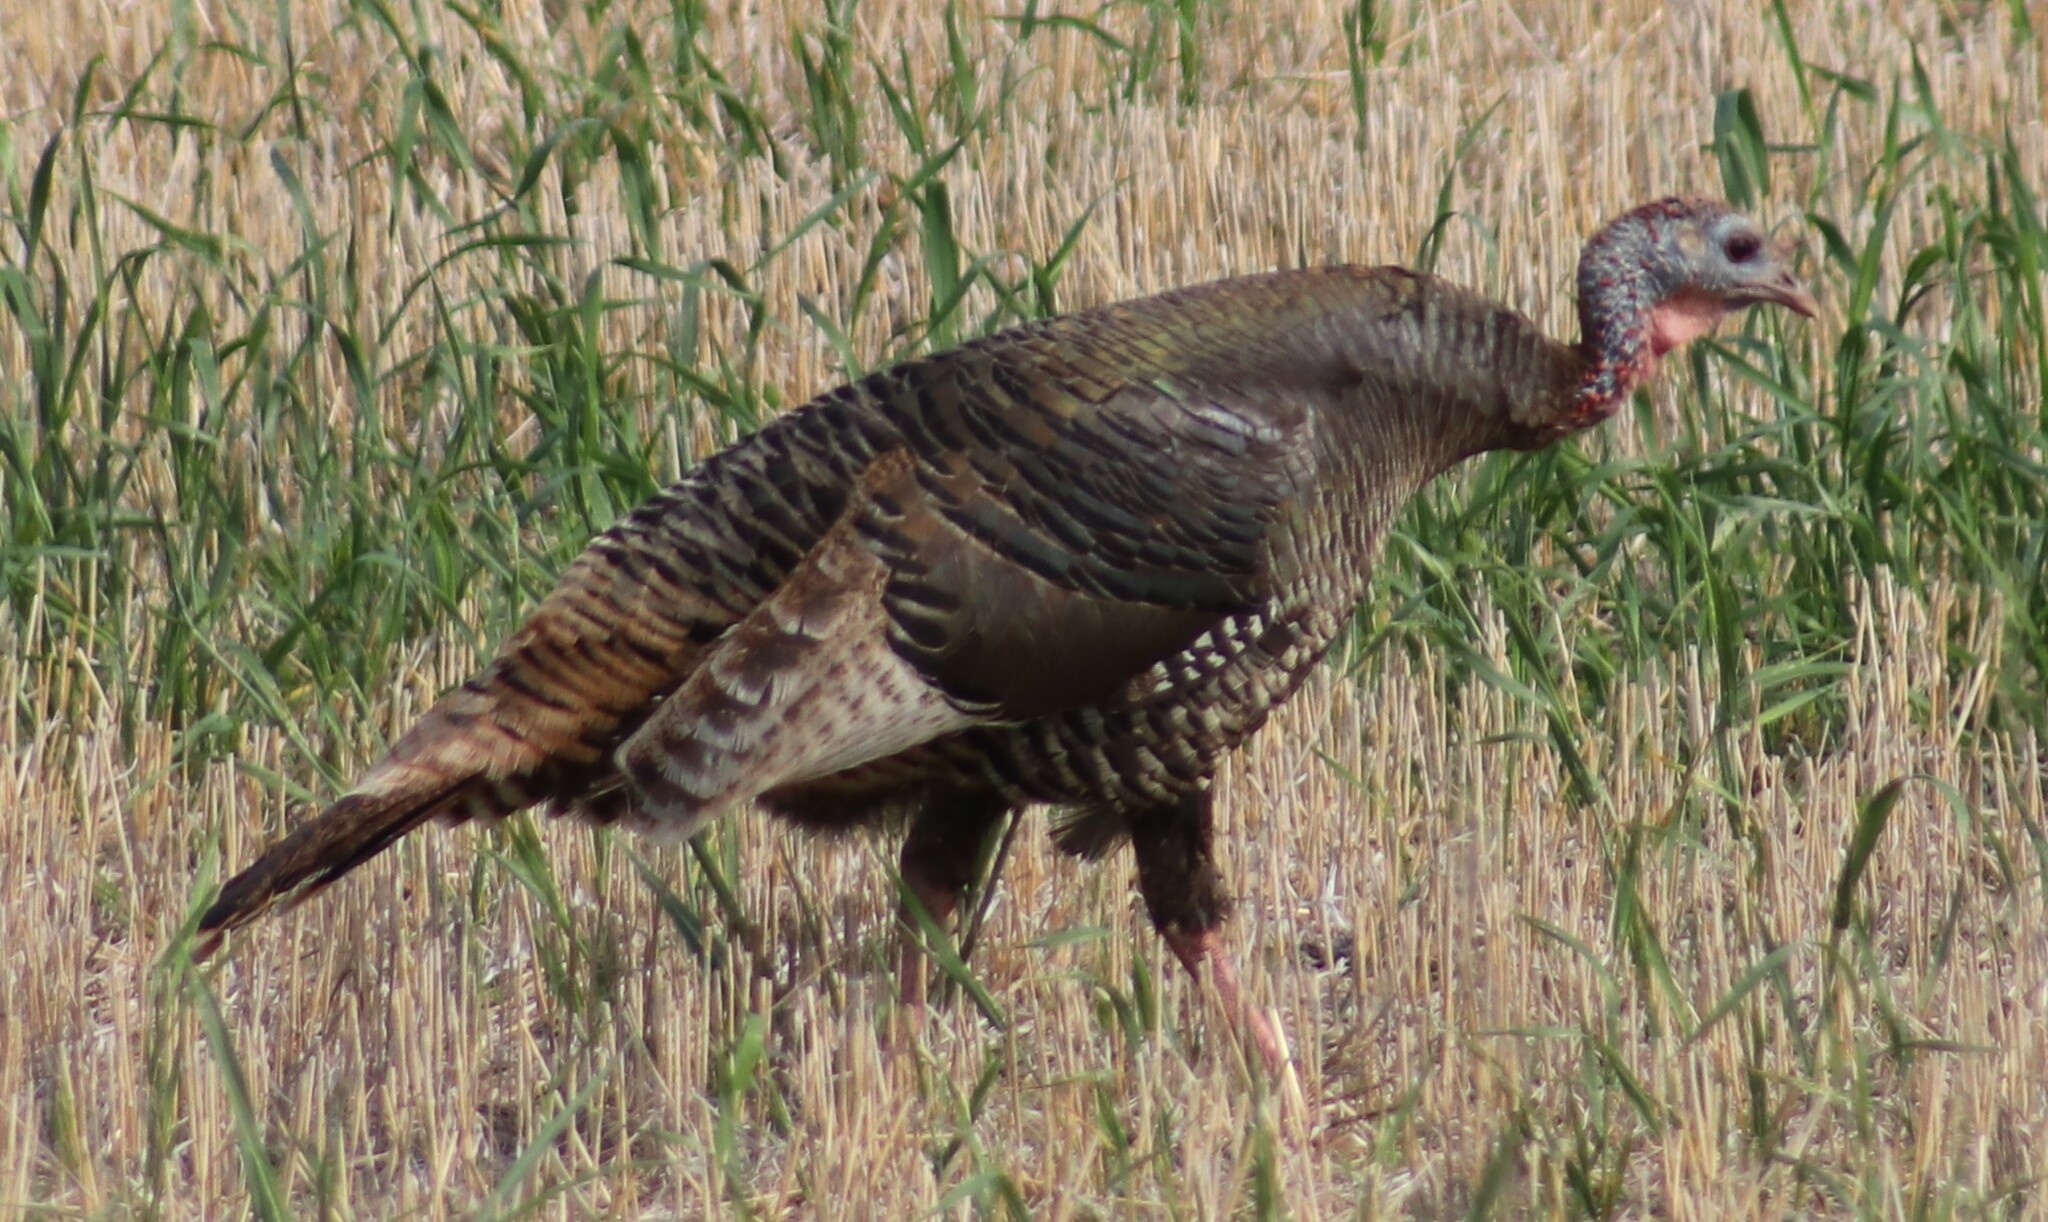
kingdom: Animalia
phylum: Chordata
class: Aves
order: Galliformes
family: Phasianidae
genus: Meleagris
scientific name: Meleagris gallopavo
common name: Wild turkey
